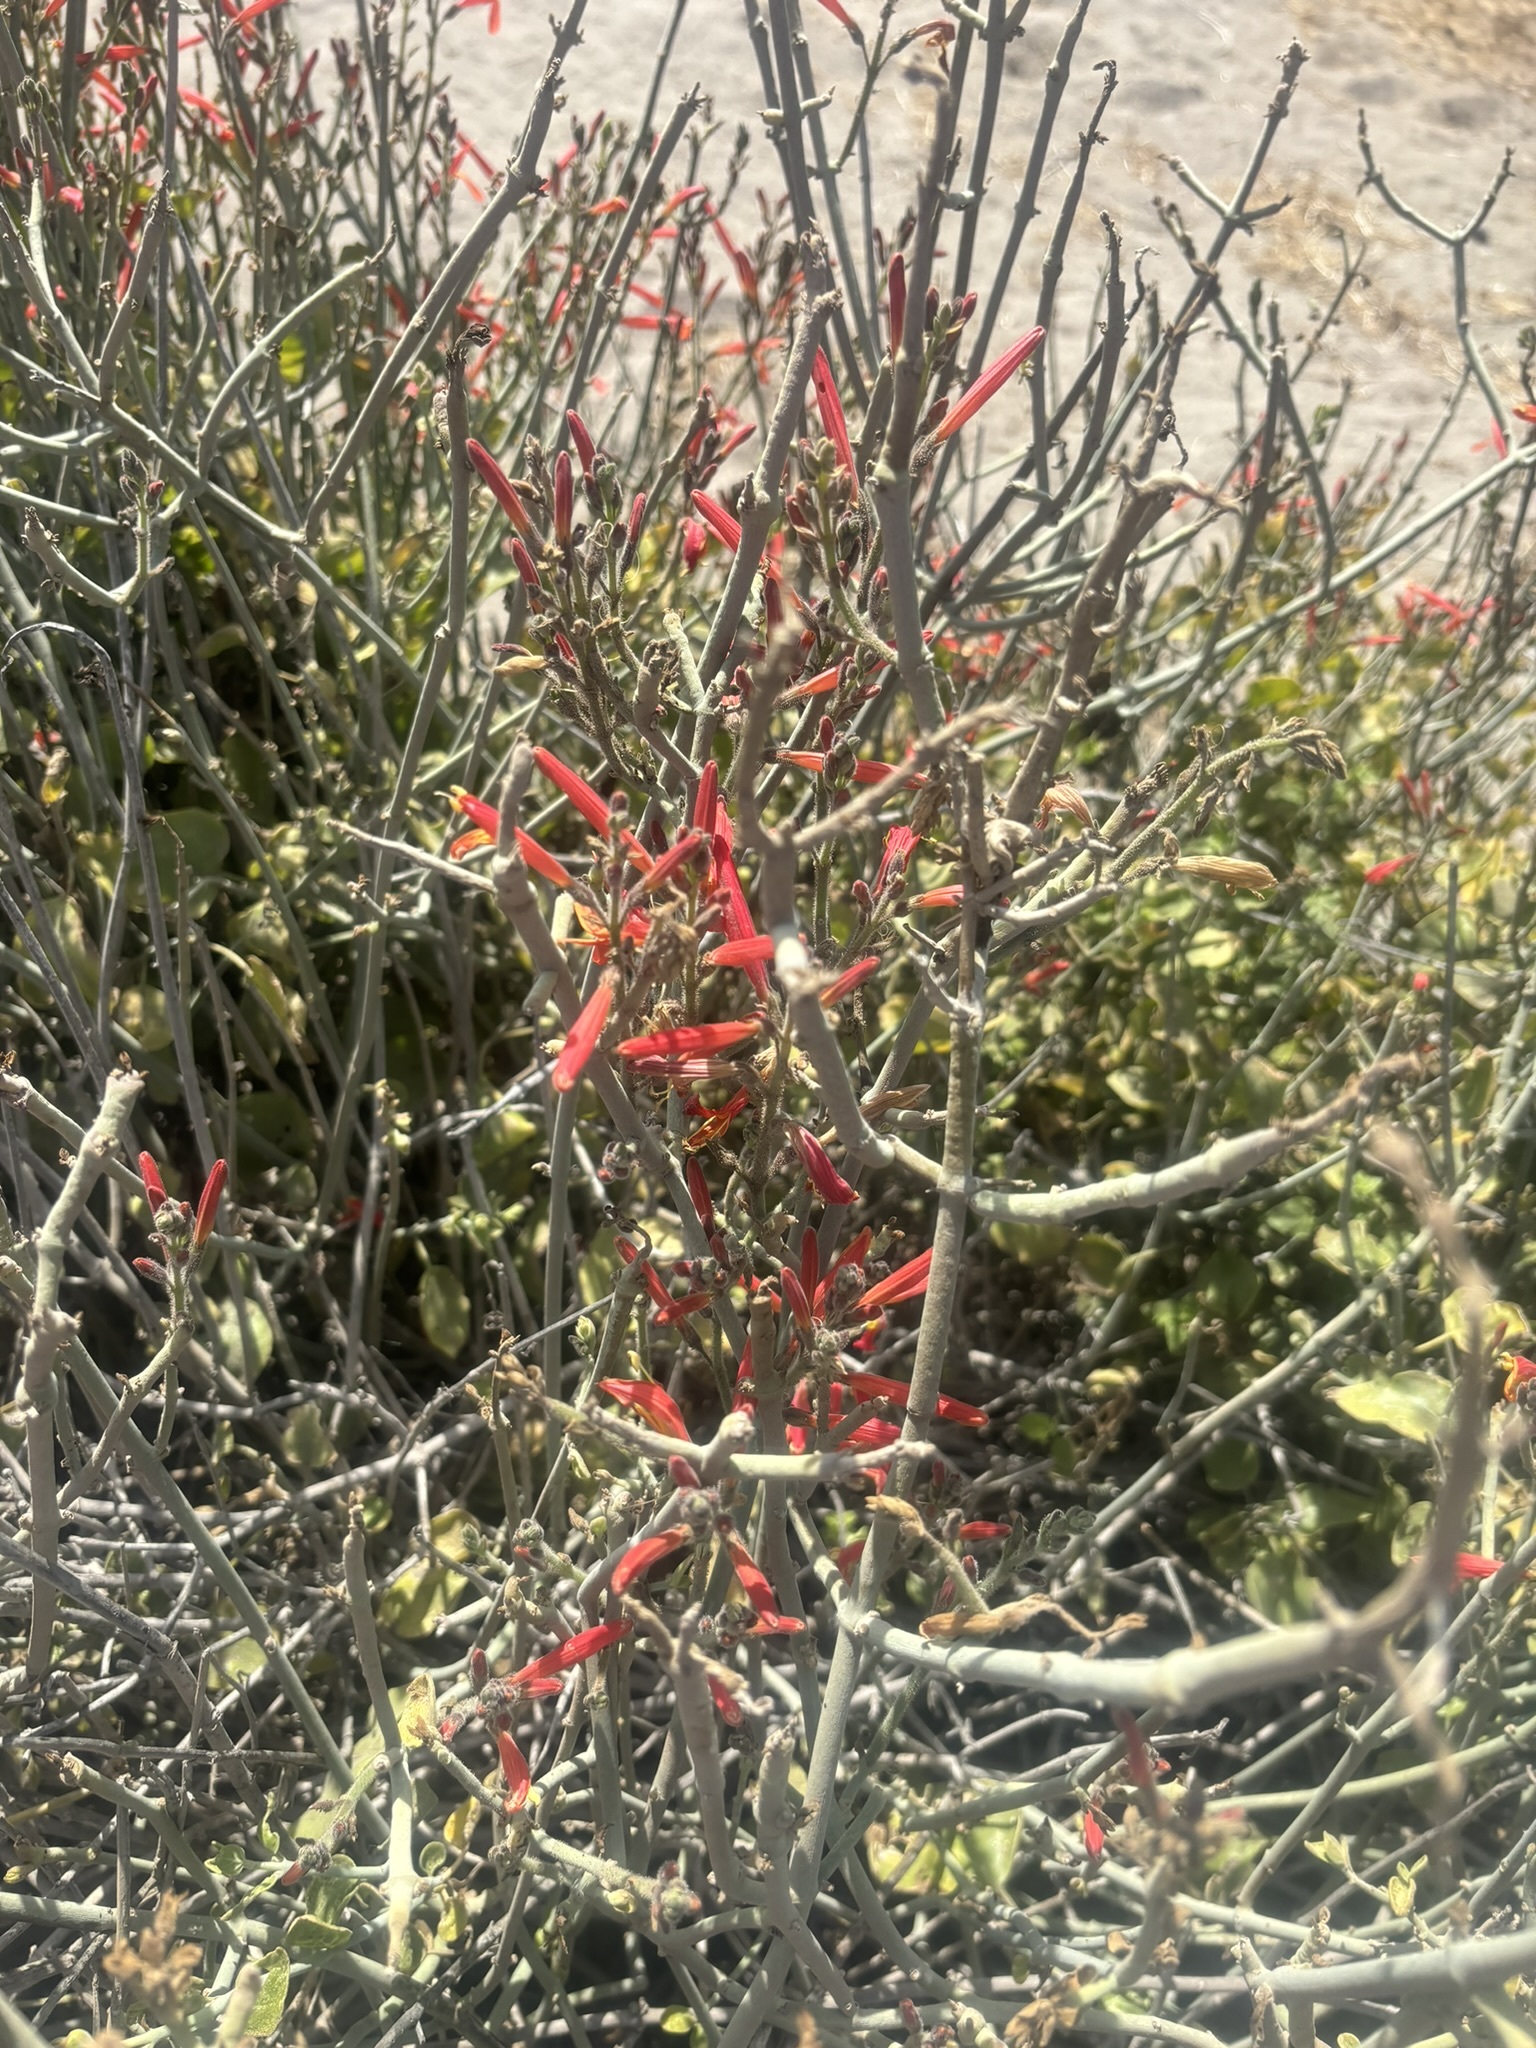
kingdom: Plantae
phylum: Tracheophyta
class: Magnoliopsida
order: Lamiales
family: Acanthaceae
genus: Justicia
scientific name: Justicia californica
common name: Chuparosa-honeysuckle
